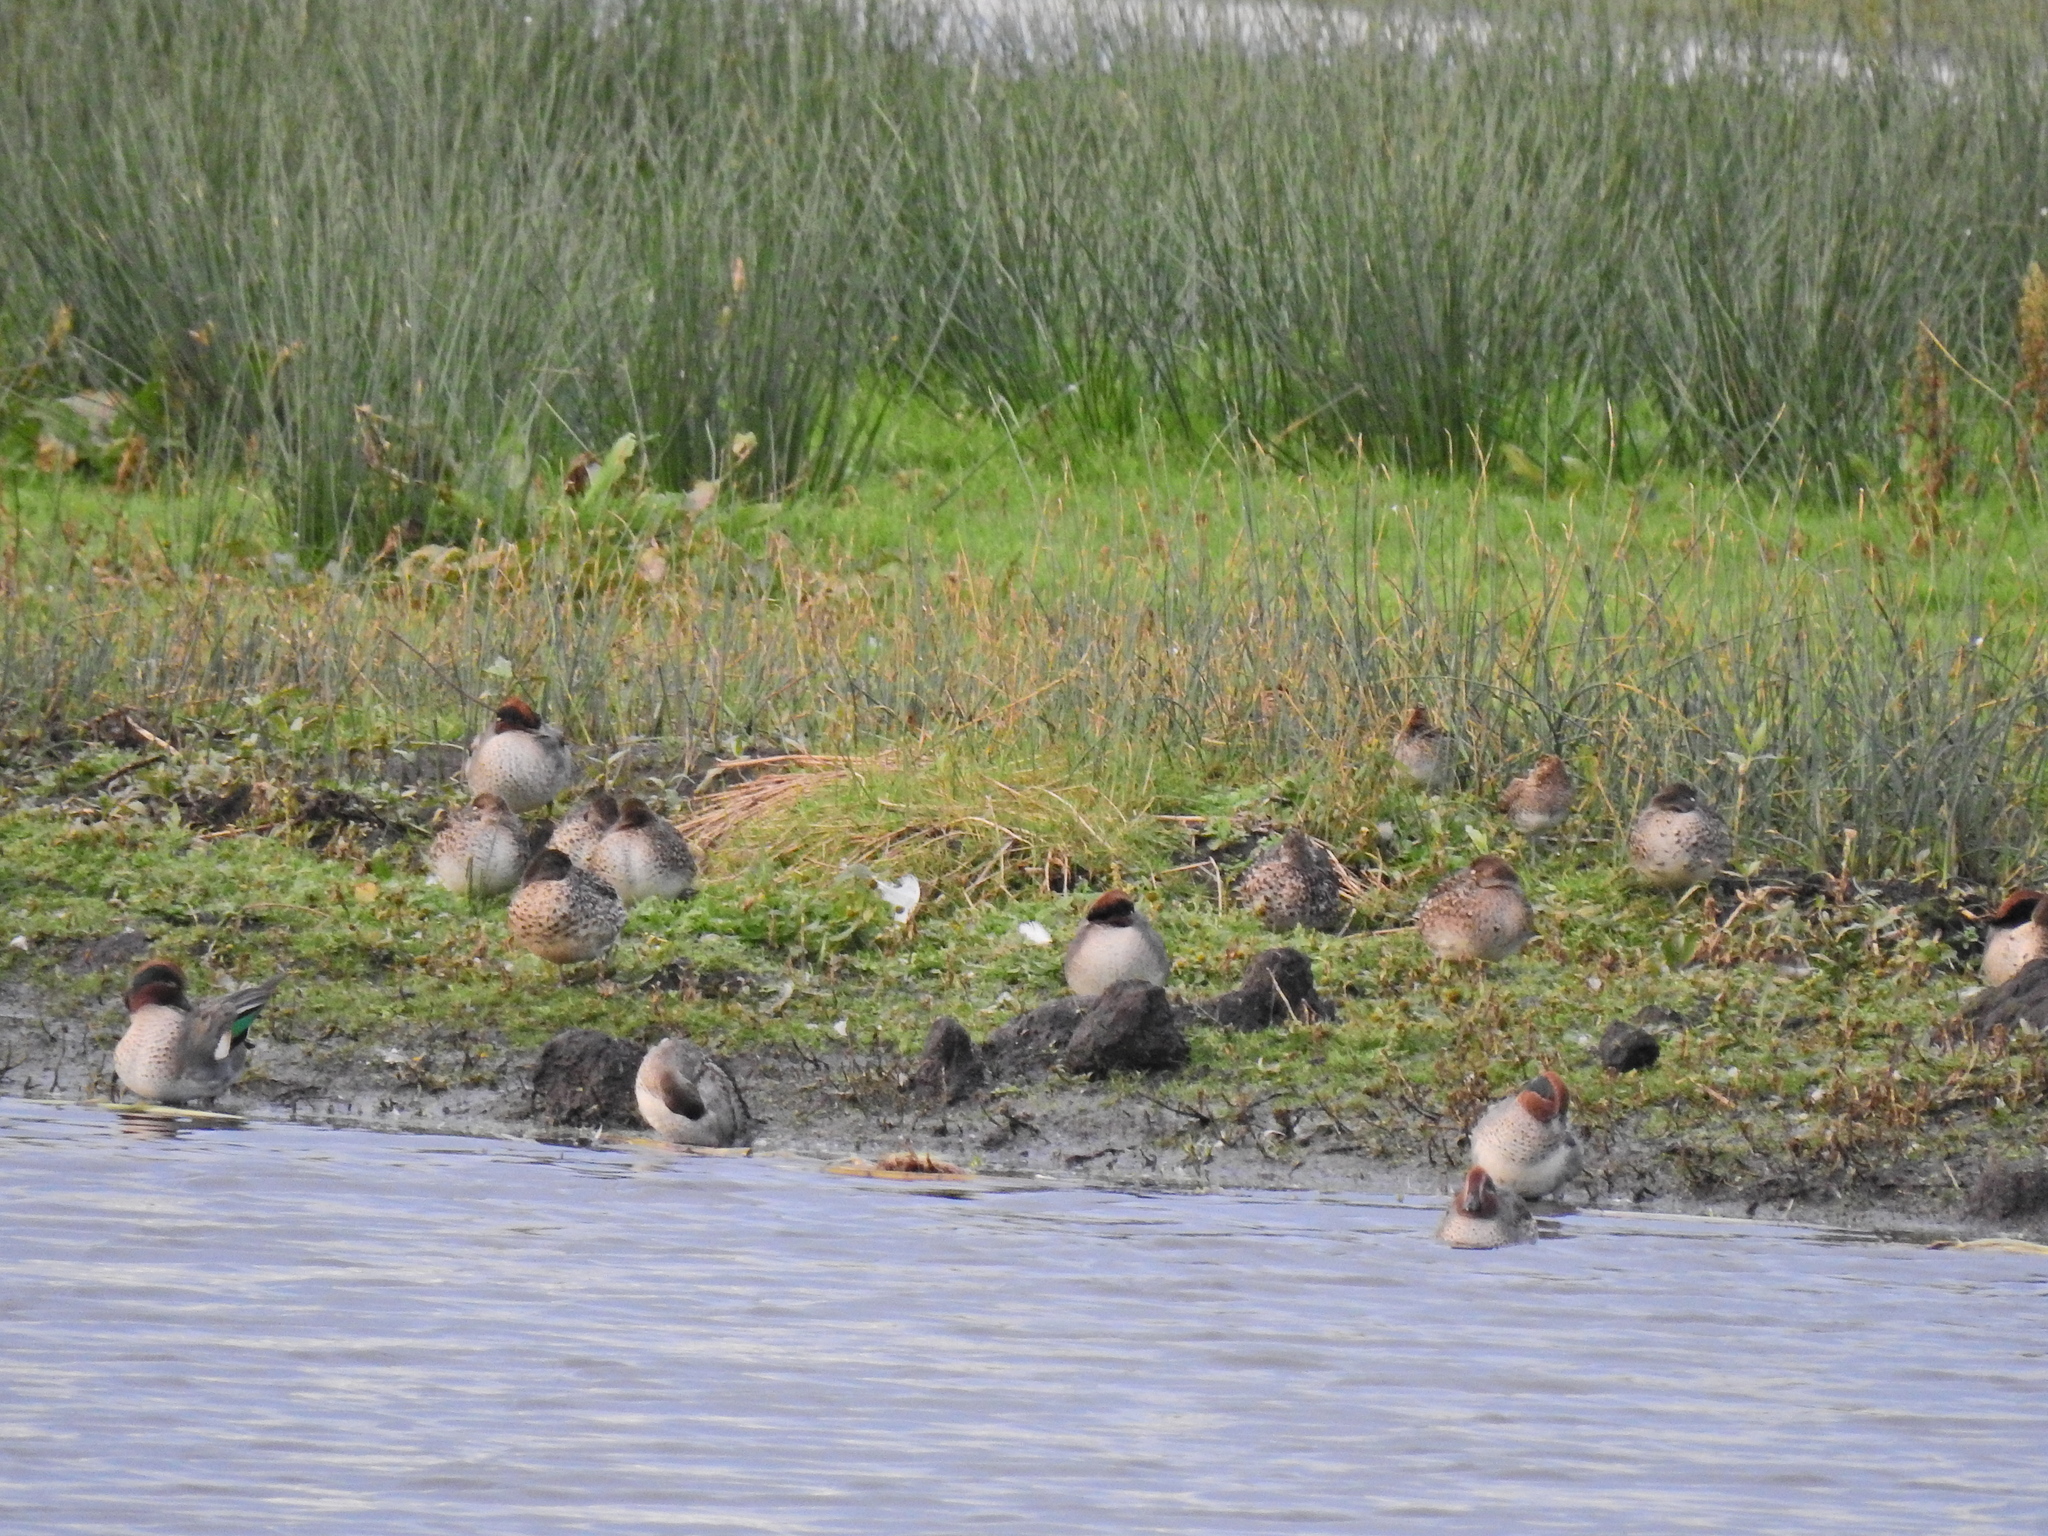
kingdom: Animalia
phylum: Chordata
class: Aves
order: Anseriformes
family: Anatidae
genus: Anas
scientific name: Anas crecca
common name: Eurasian teal
